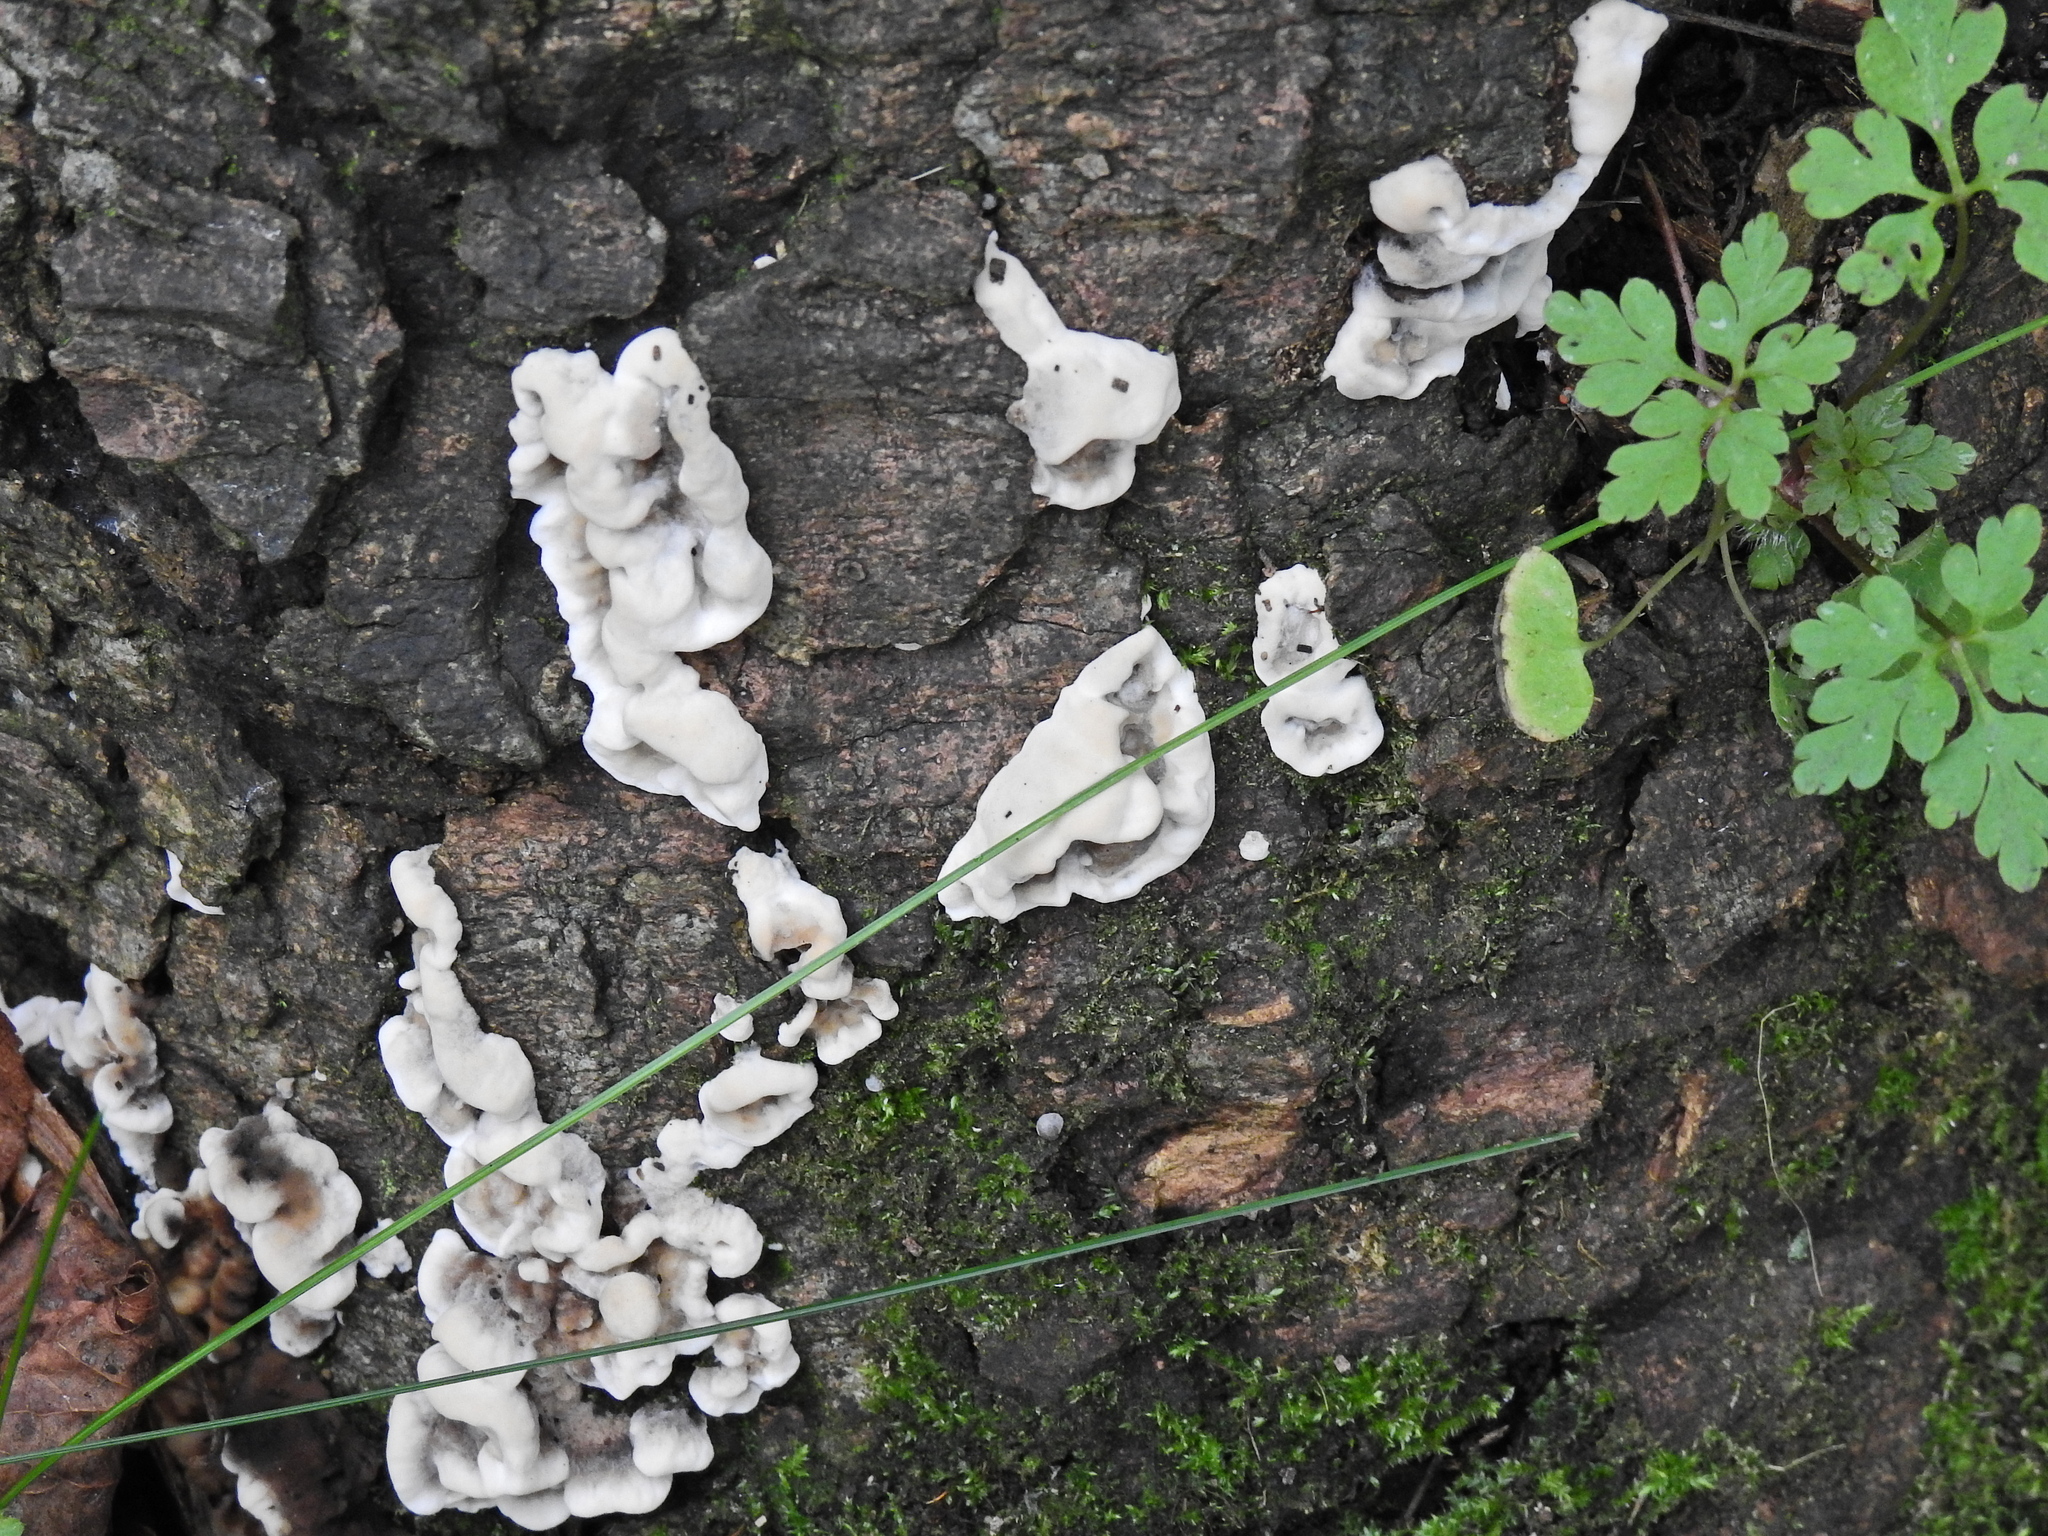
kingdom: Fungi
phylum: Ascomycota
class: Sordariomycetes
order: Xylariales
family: Xylariaceae
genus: Kretzschmaria
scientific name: Kretzschmaria deusta
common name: Brittle cinder
